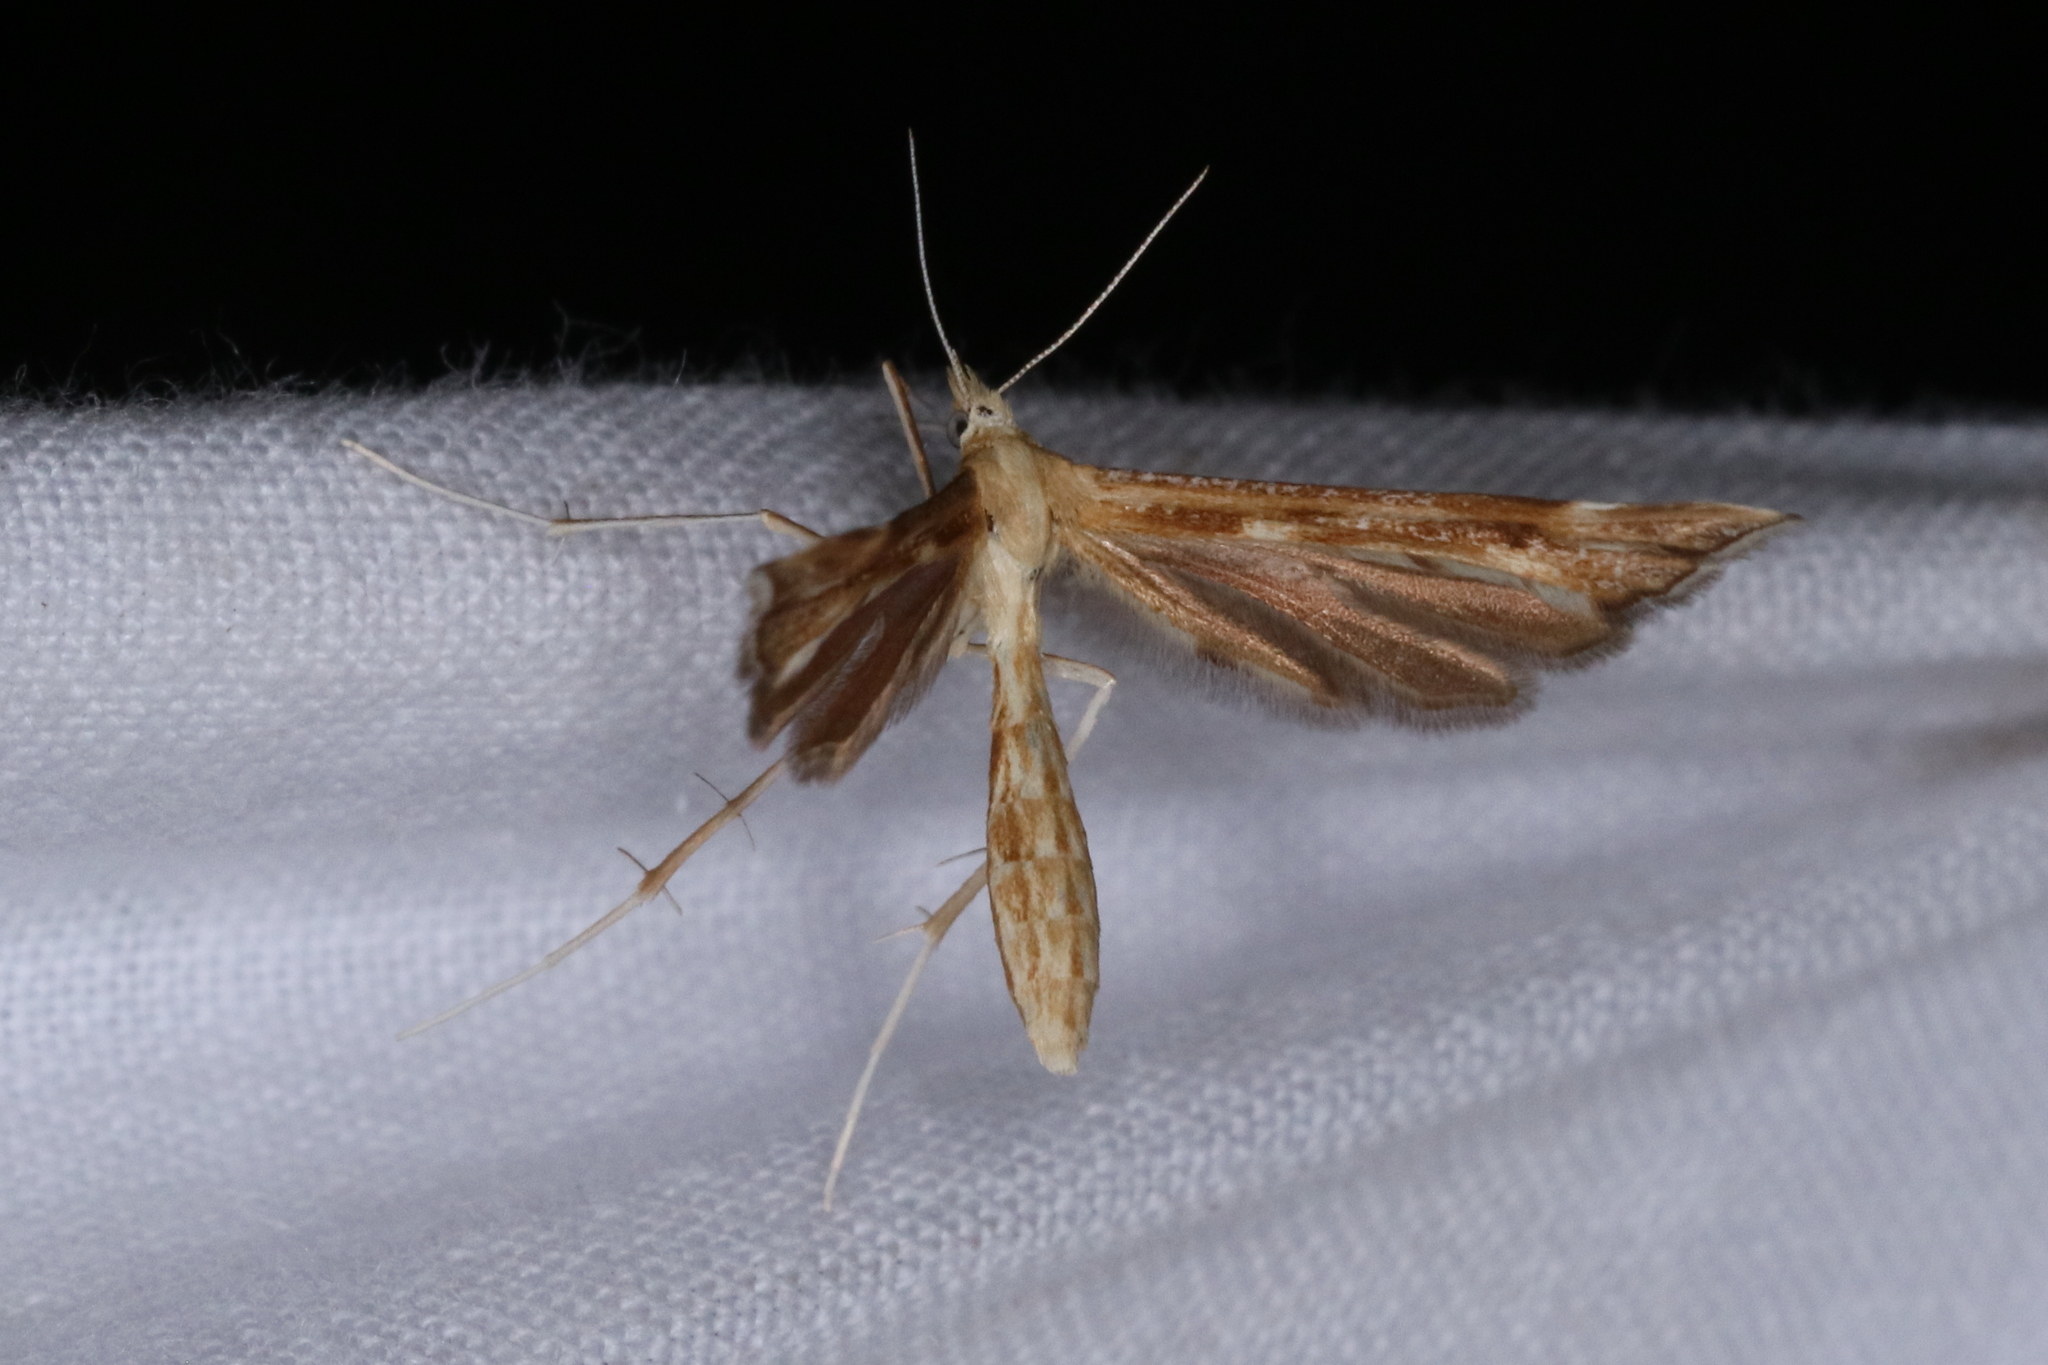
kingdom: Animalia
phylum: Arthropoda
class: Insecta
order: Lepidoptera
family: Pterophoridae
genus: Gillmeria
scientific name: Gillmeria pallidactyla
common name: Yarrow plume
